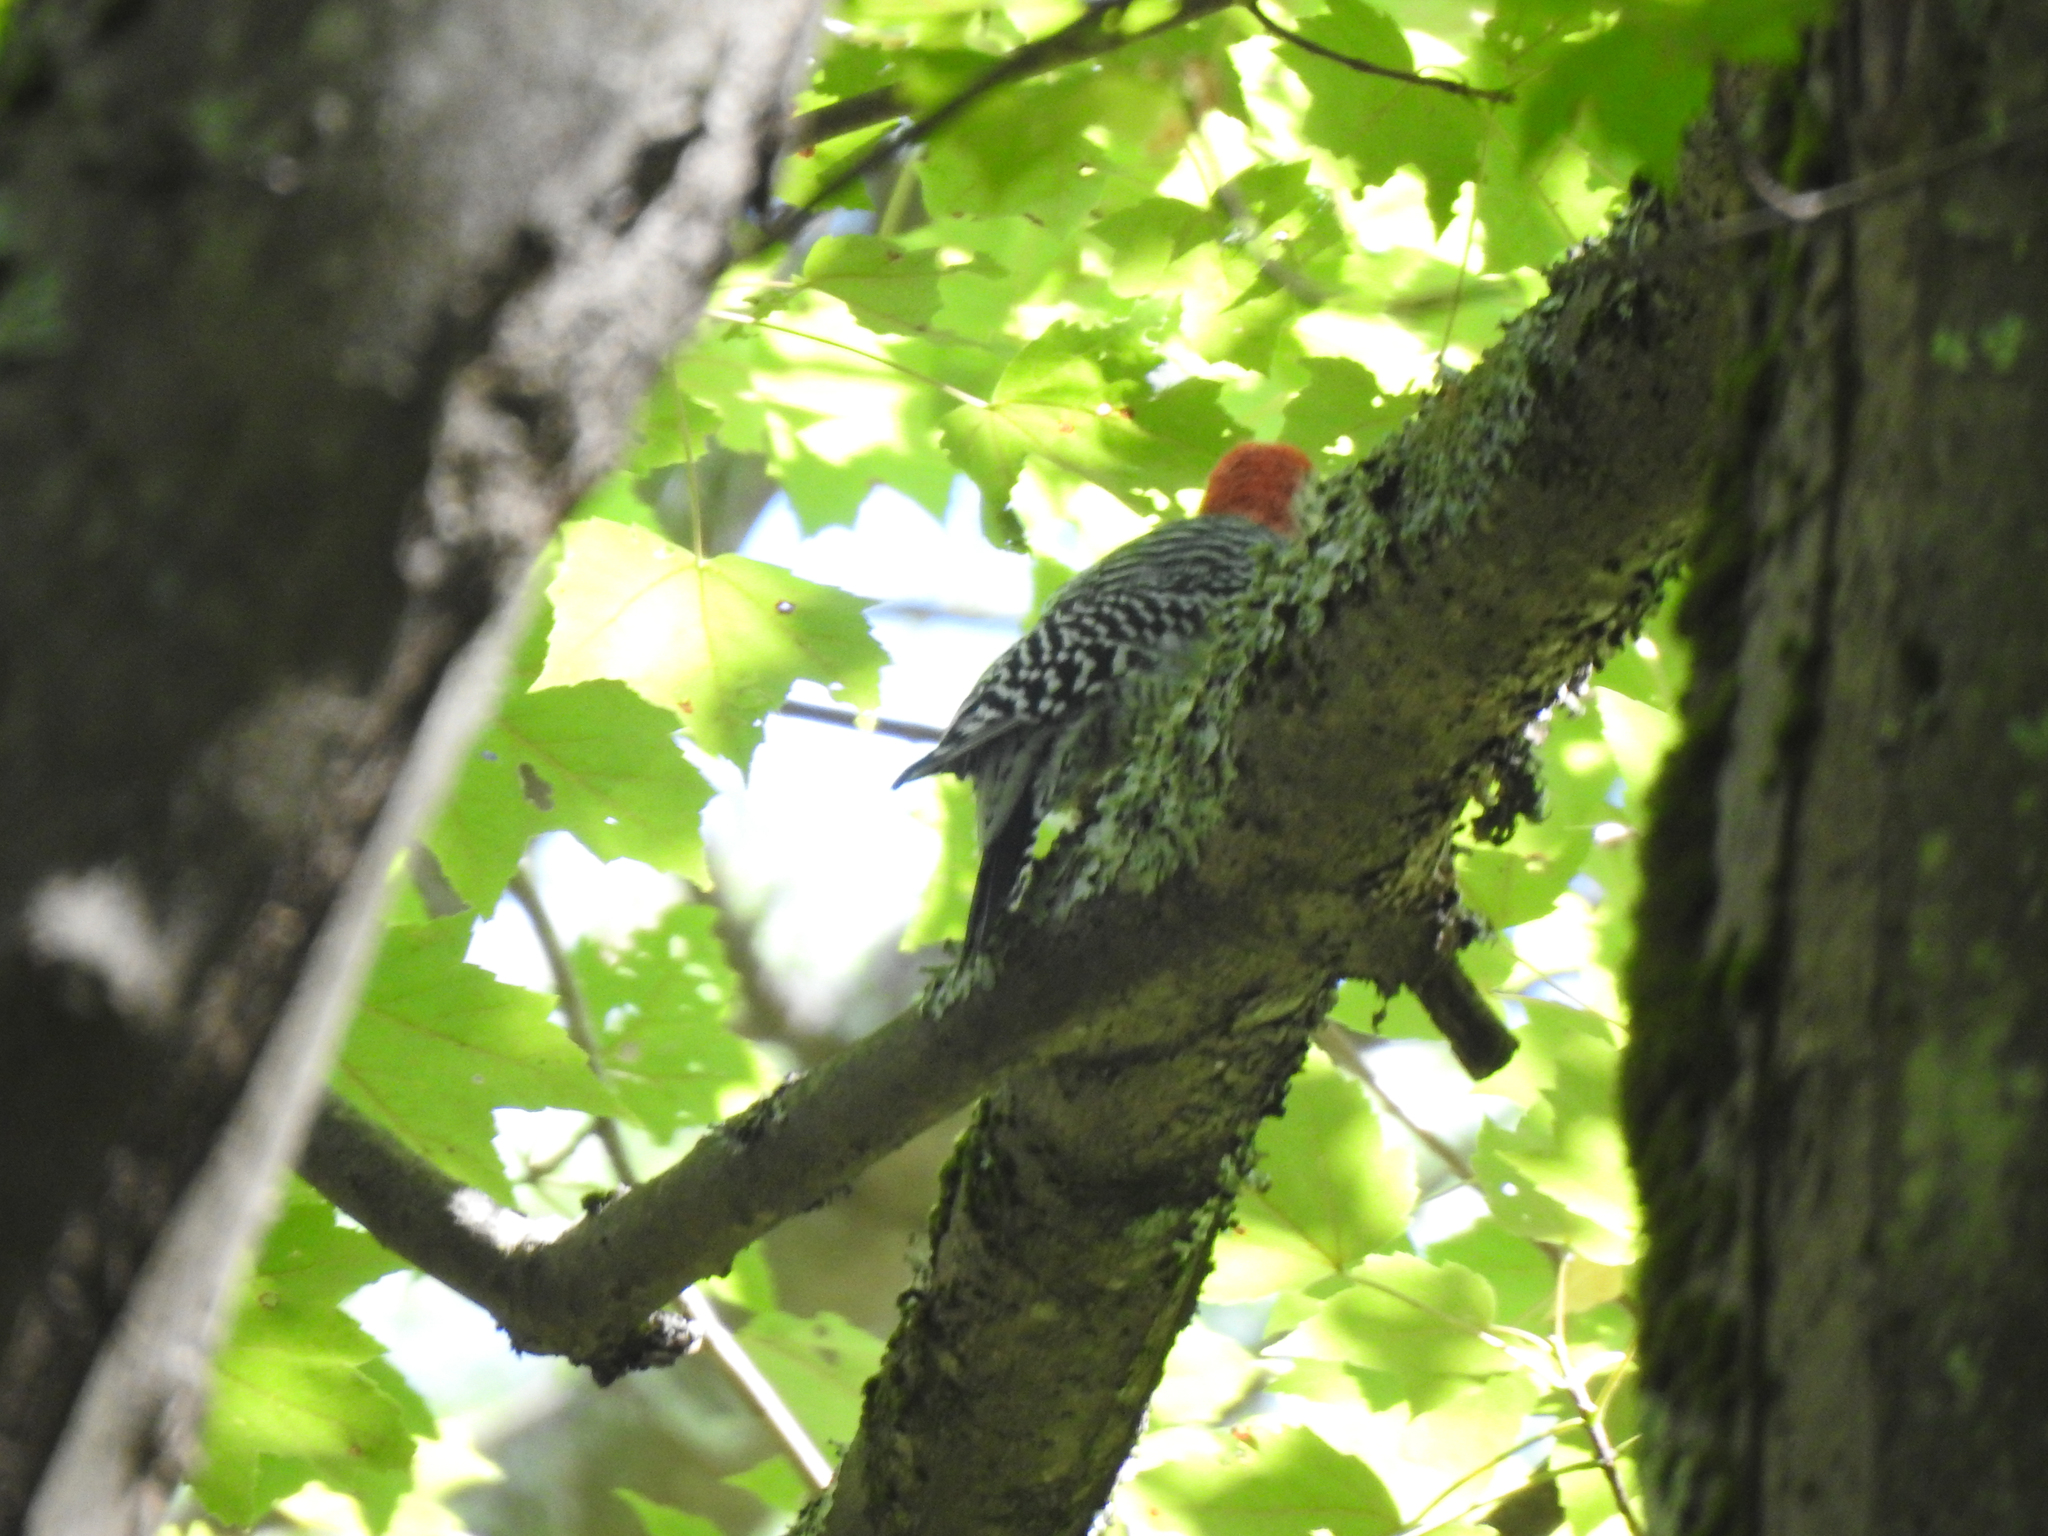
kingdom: Animalia
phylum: Chordata
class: Aves
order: Piciformes
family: Picidae
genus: Melanerpes
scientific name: Melanerpes carolinus
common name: Red-bellied woodpecker
